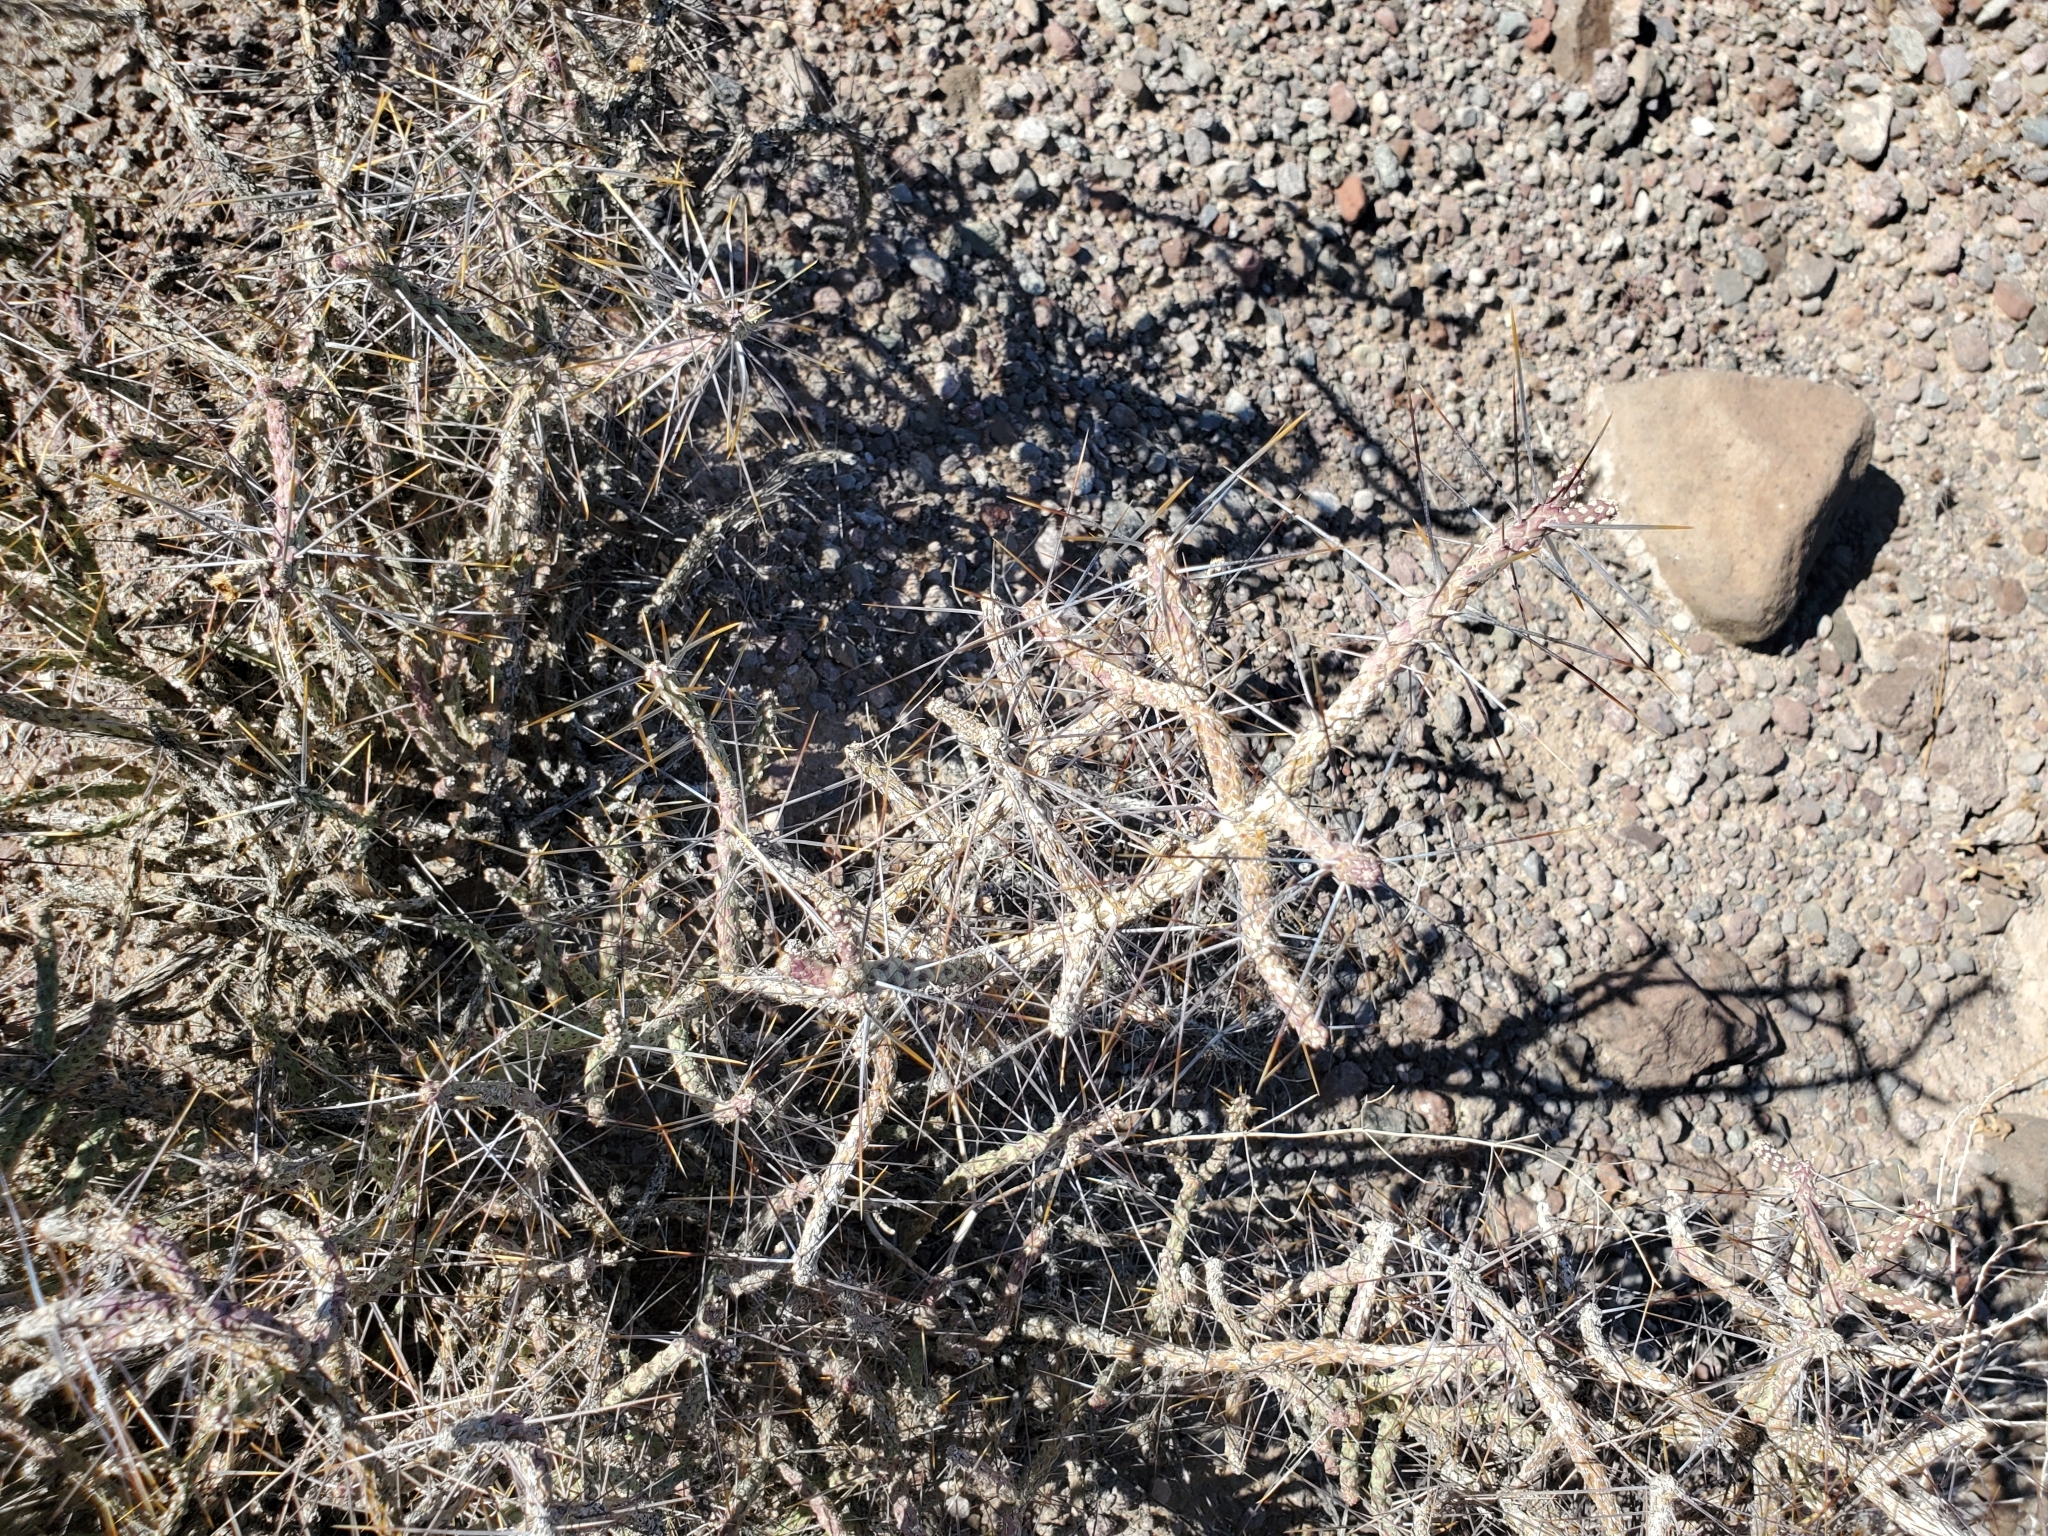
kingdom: Plantae
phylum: Tracheophyta
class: Magnoliopsida
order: Caryophyllales
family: Cactaceae
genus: Cylindropuntia
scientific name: Cylindropuntia ramosissima
